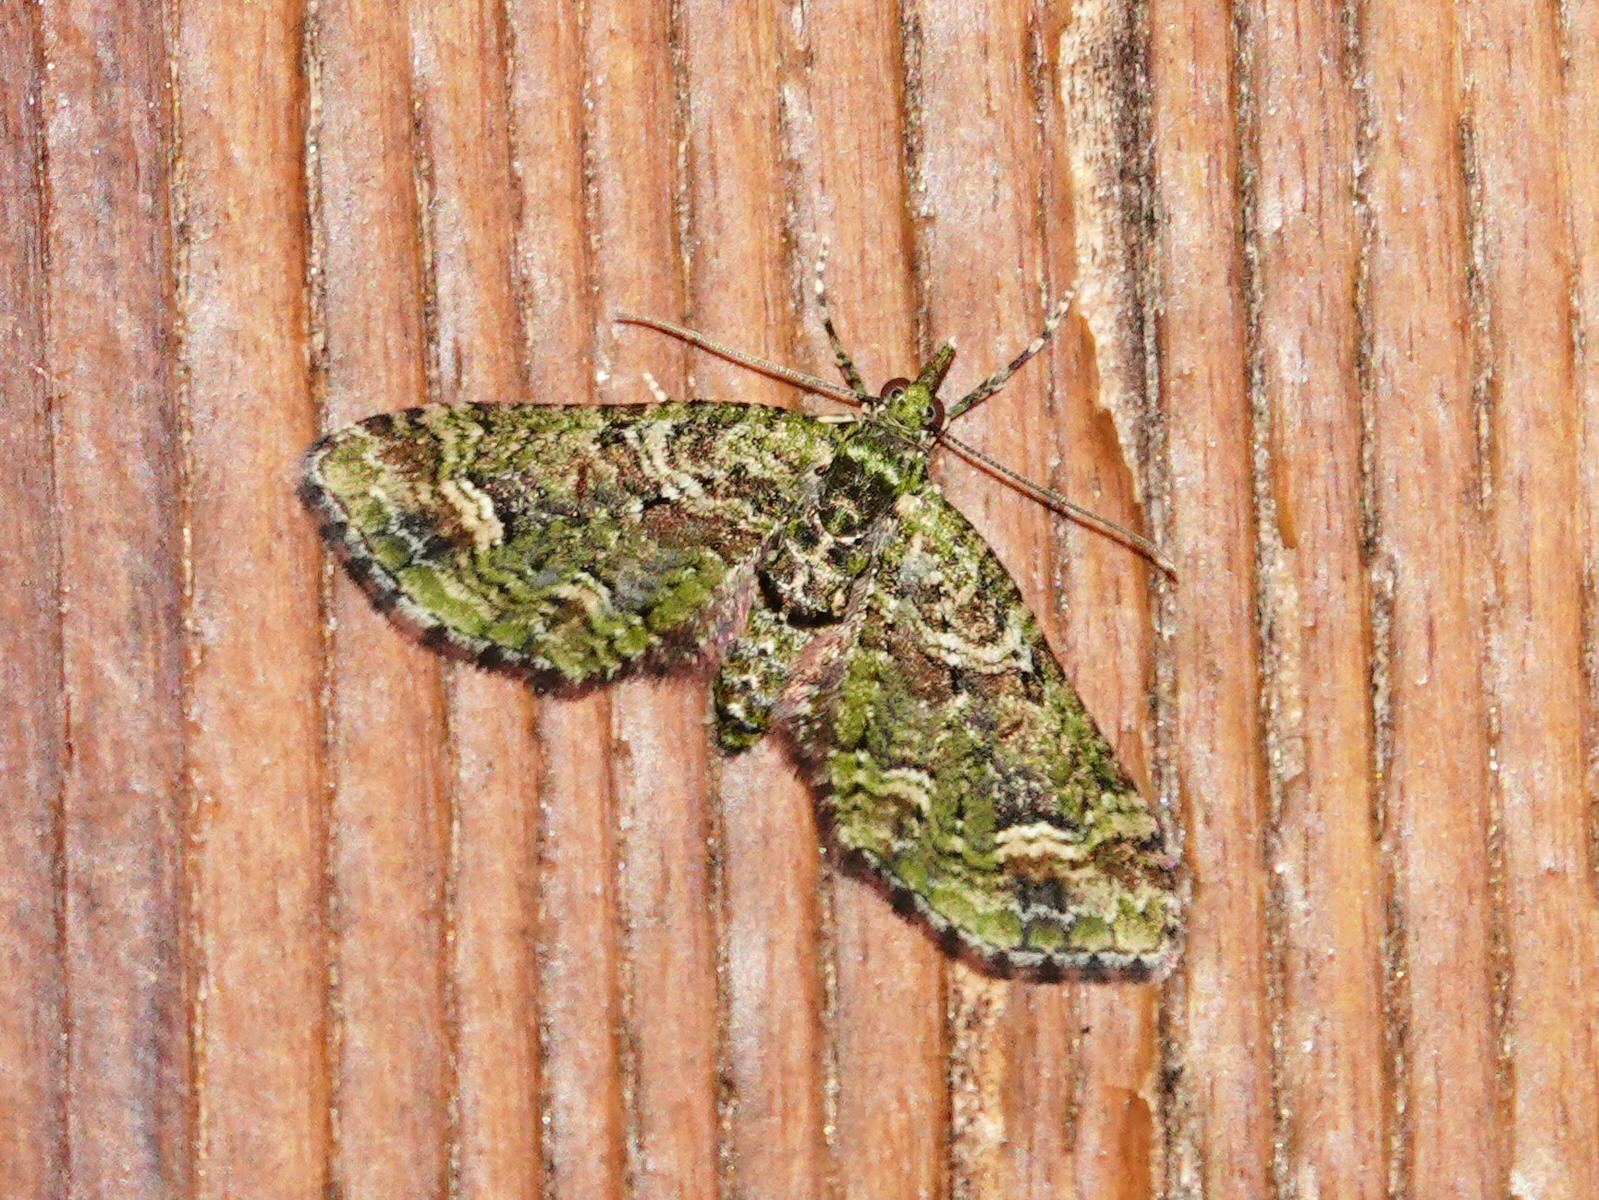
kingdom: Animalia
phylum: Arthropoda
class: Insecta
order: Lepidoptera
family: Geometridae
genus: Idaea
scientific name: Idaea mutanda
